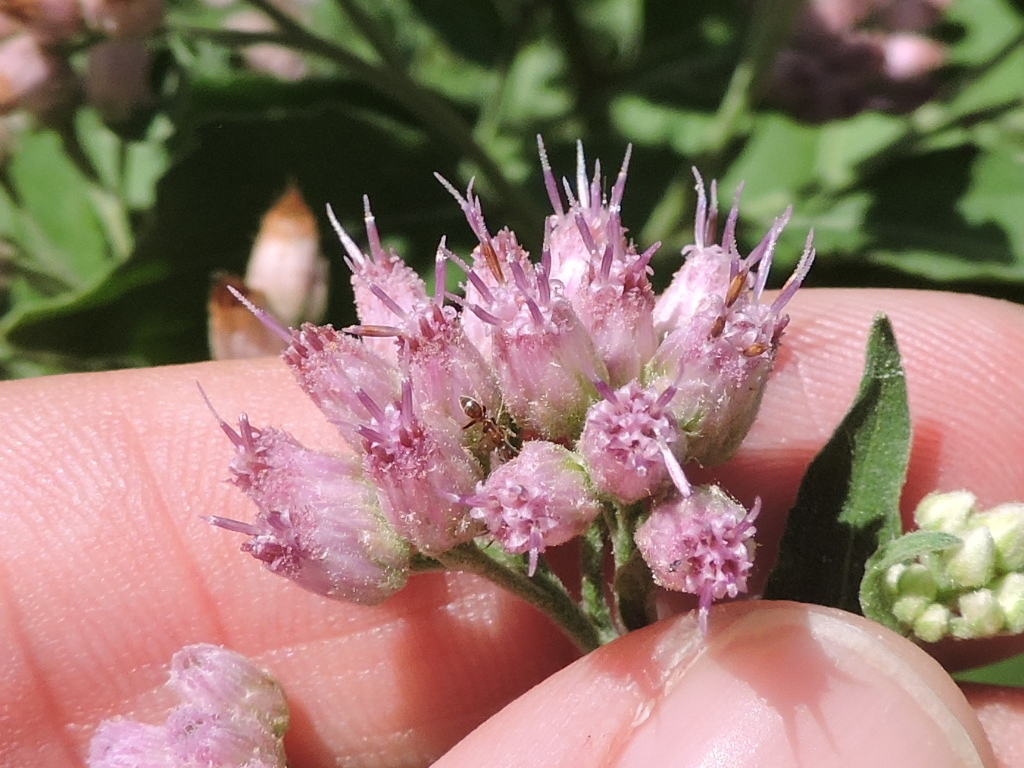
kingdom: Plantae
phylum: Tracheophyta
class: Magnoliopsida
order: Asterales
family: Asteraceae
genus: Pluchea
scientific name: Pluchea odorata
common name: Saltmarsh fleabane
